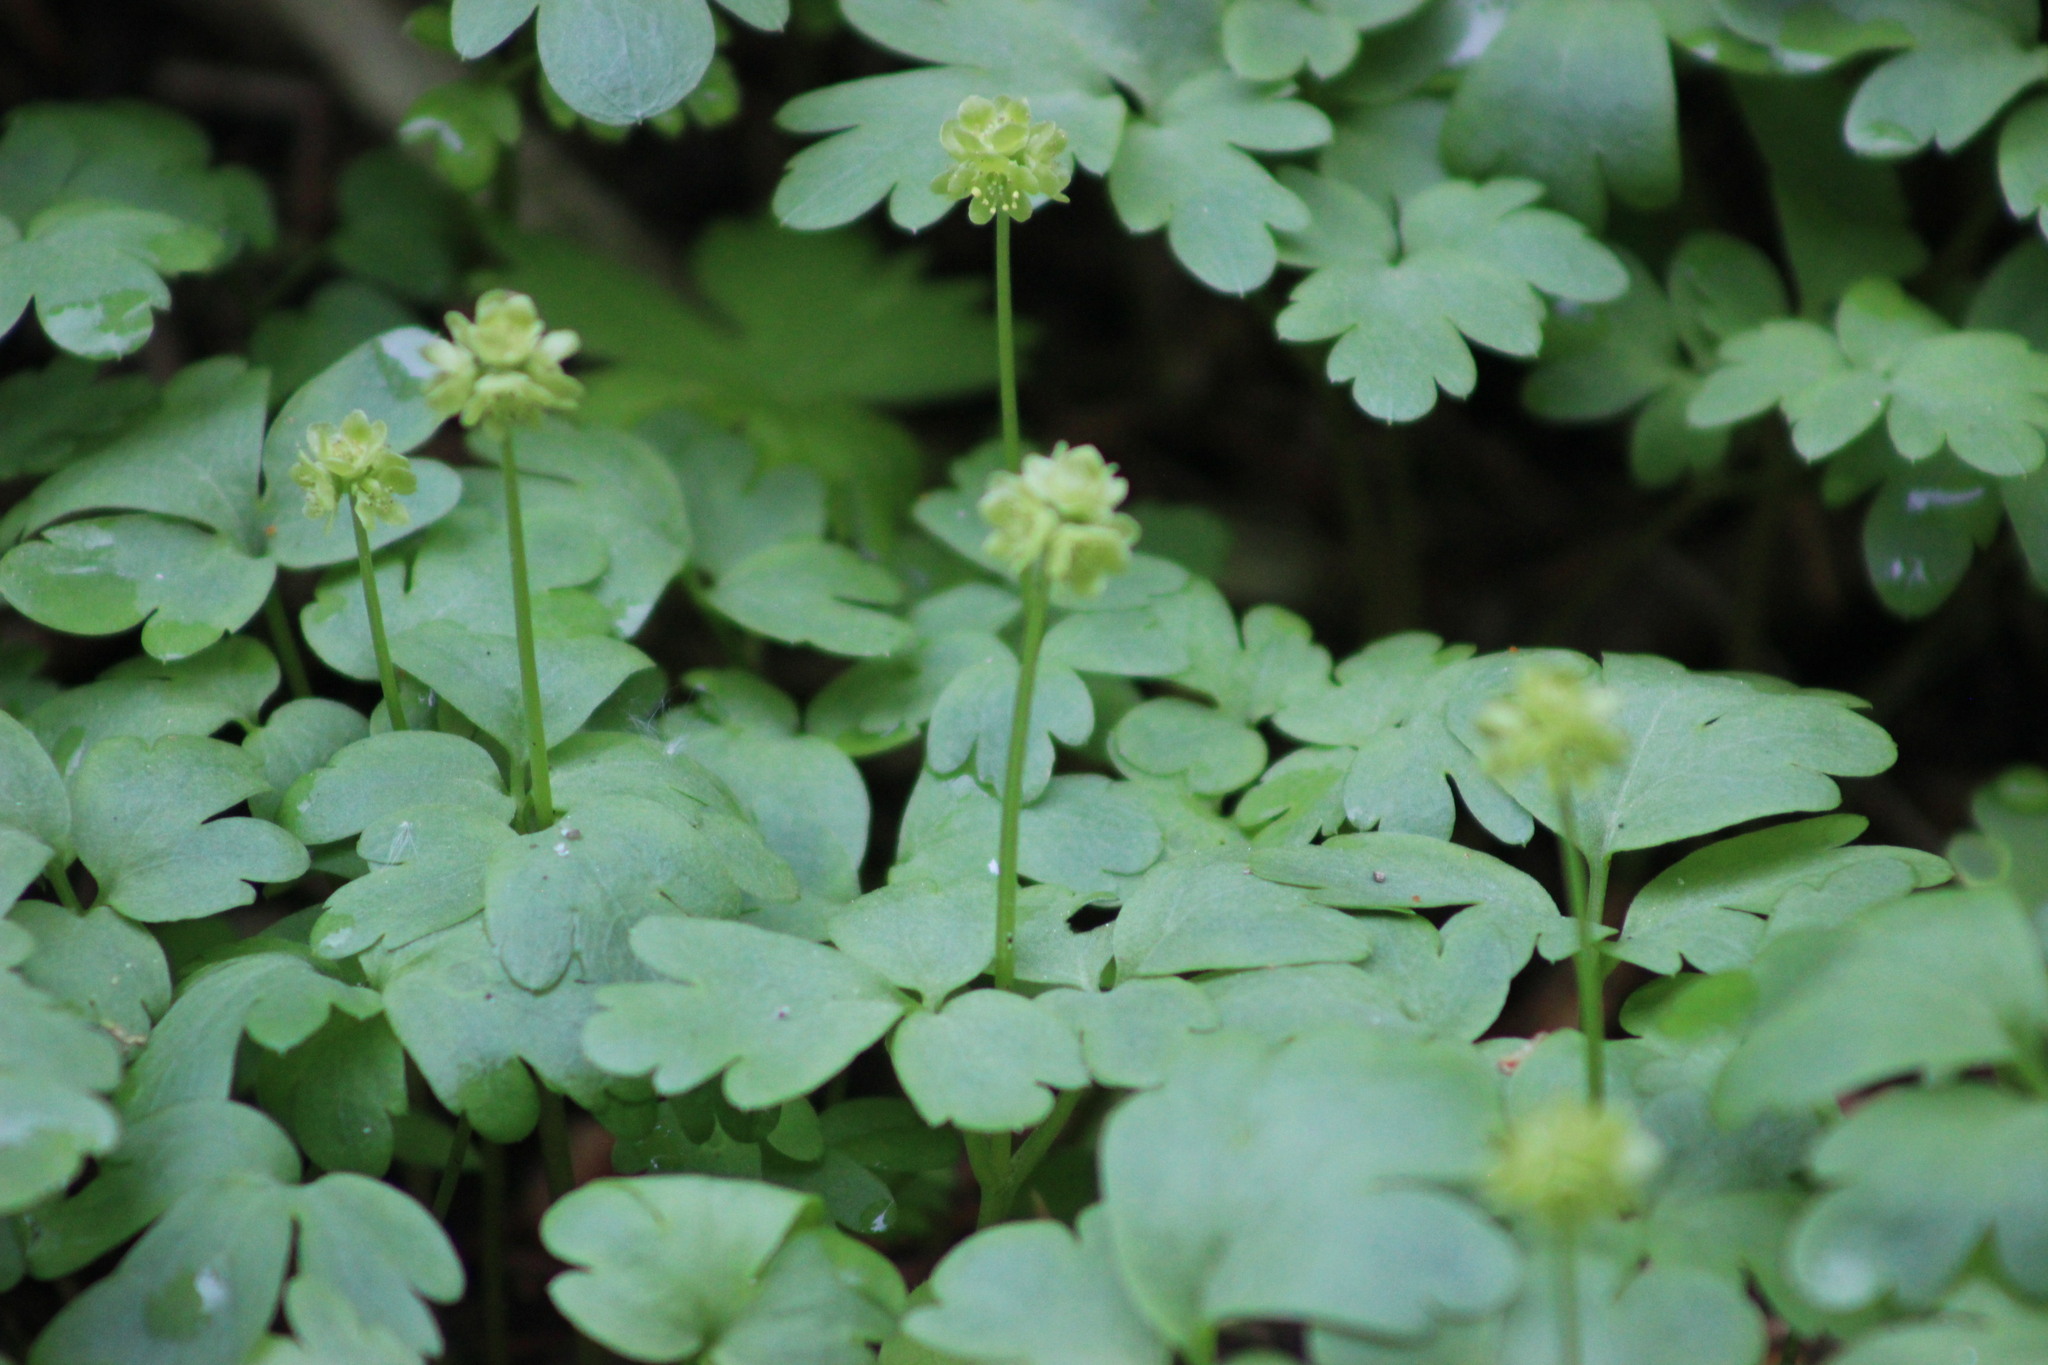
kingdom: Plantae
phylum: Tracheophyta
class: Magnoliopsida
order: Dipsacales
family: Viburnaceae
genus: Adoxa
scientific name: Adoxa moschatellina
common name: Moschatel
